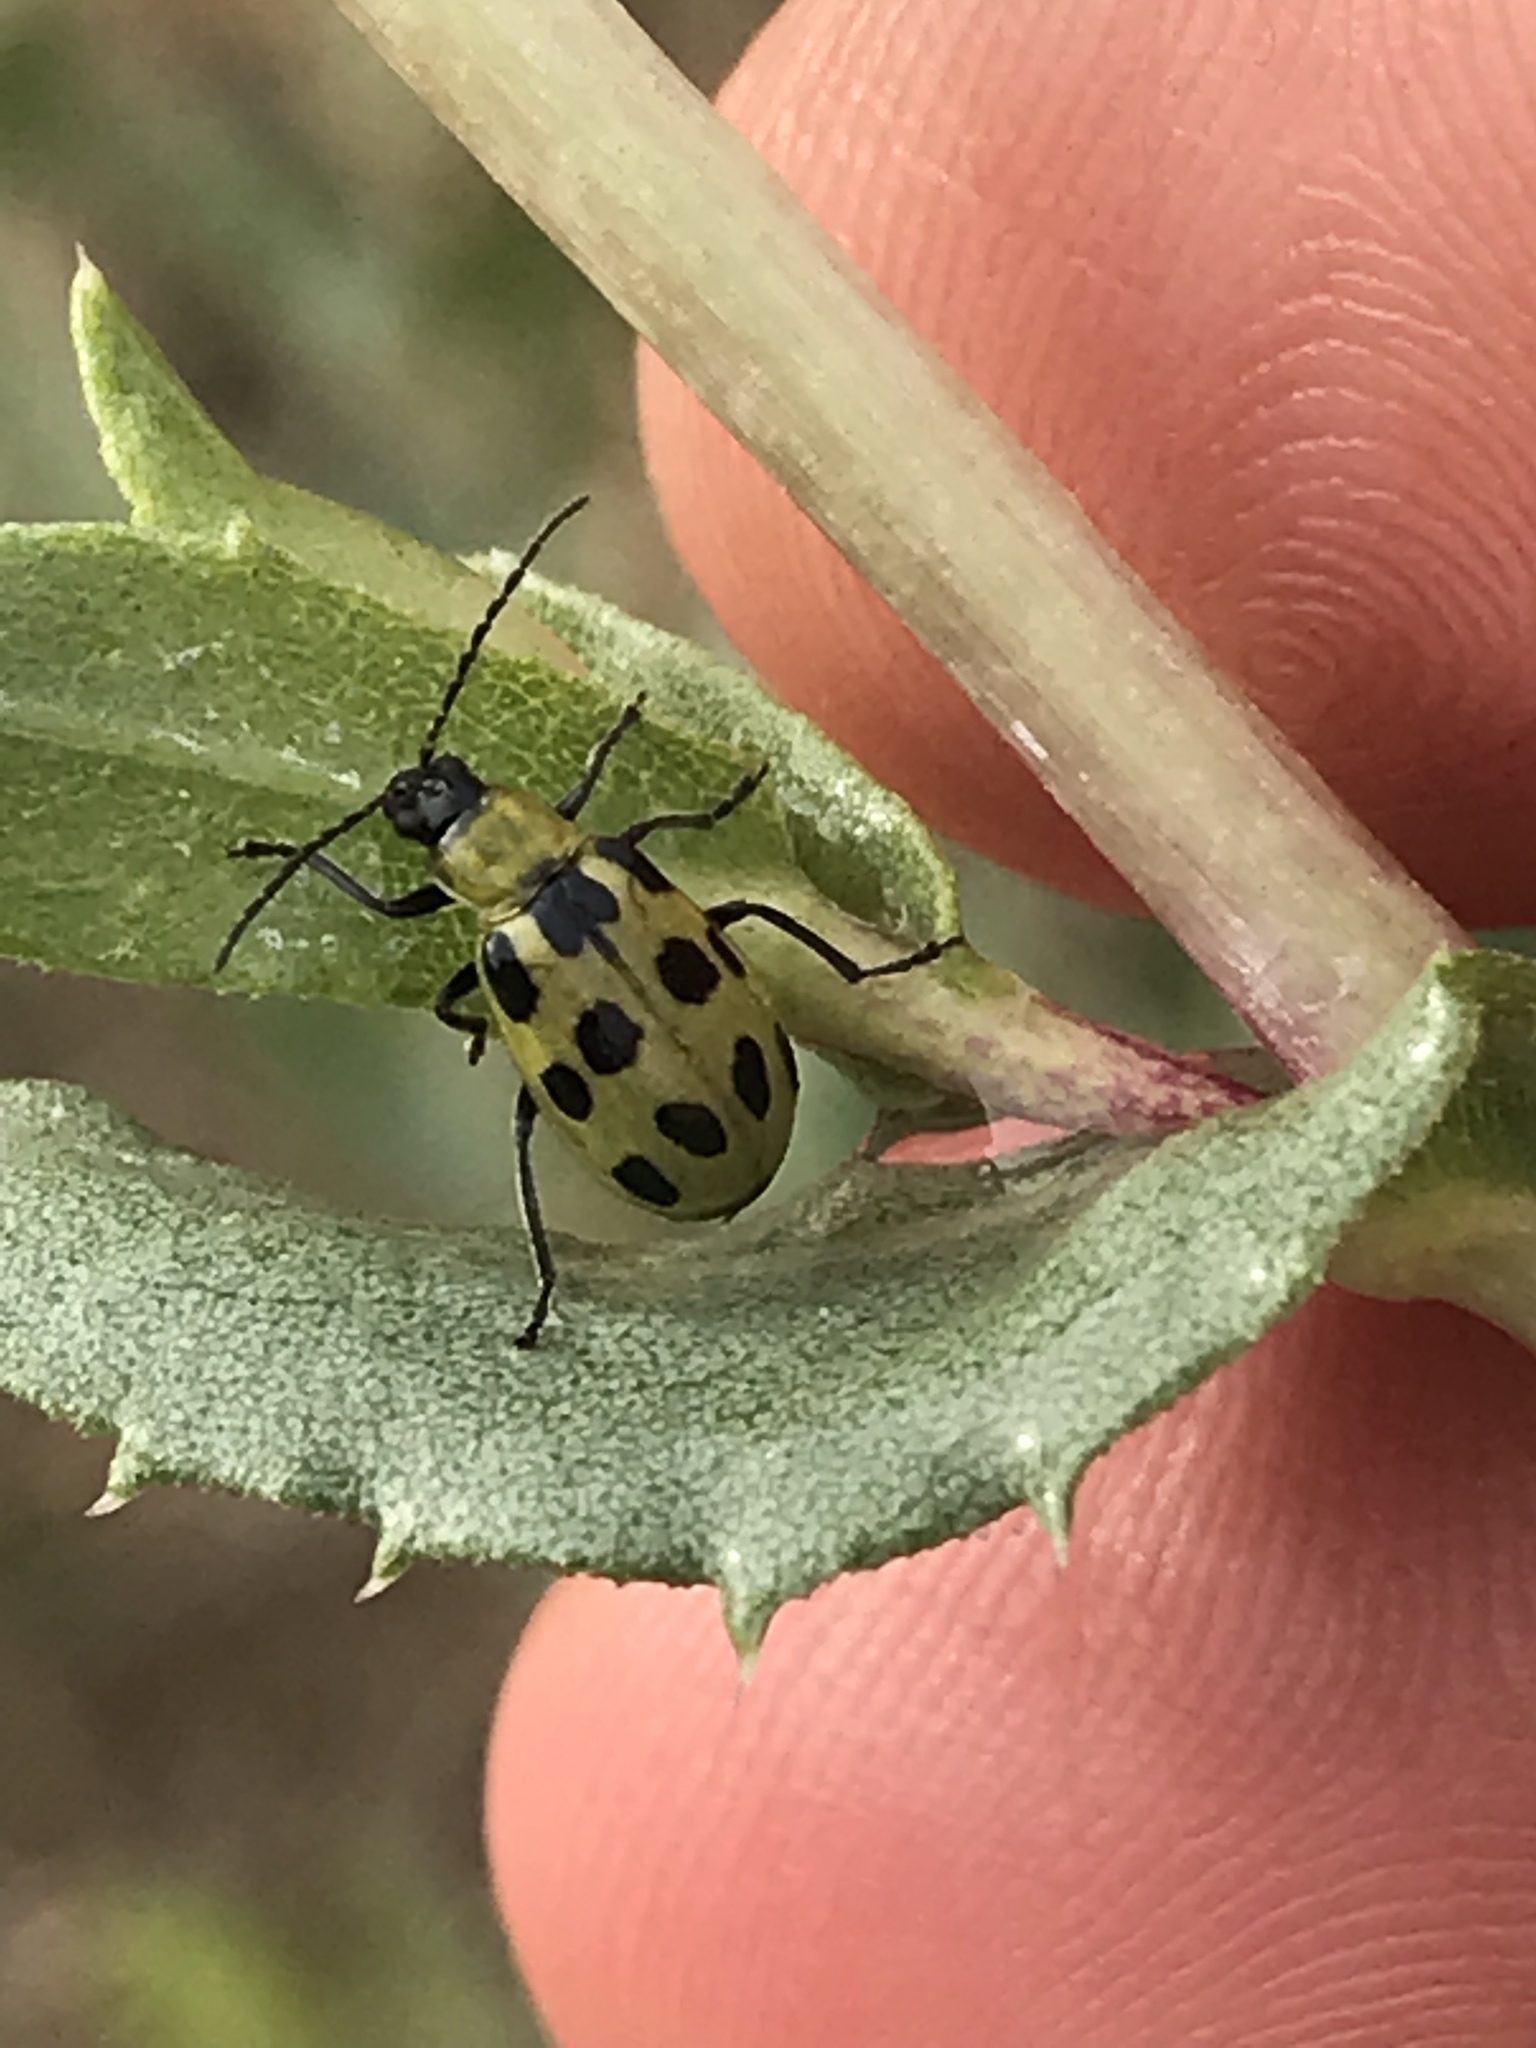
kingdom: Animalia
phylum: Arthropoda
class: Insecta
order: Coleoptera
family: Chrysomelidae
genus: Diabrotica
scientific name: Diabrotica undecimpunctata
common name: Spotted cucumber beetle
